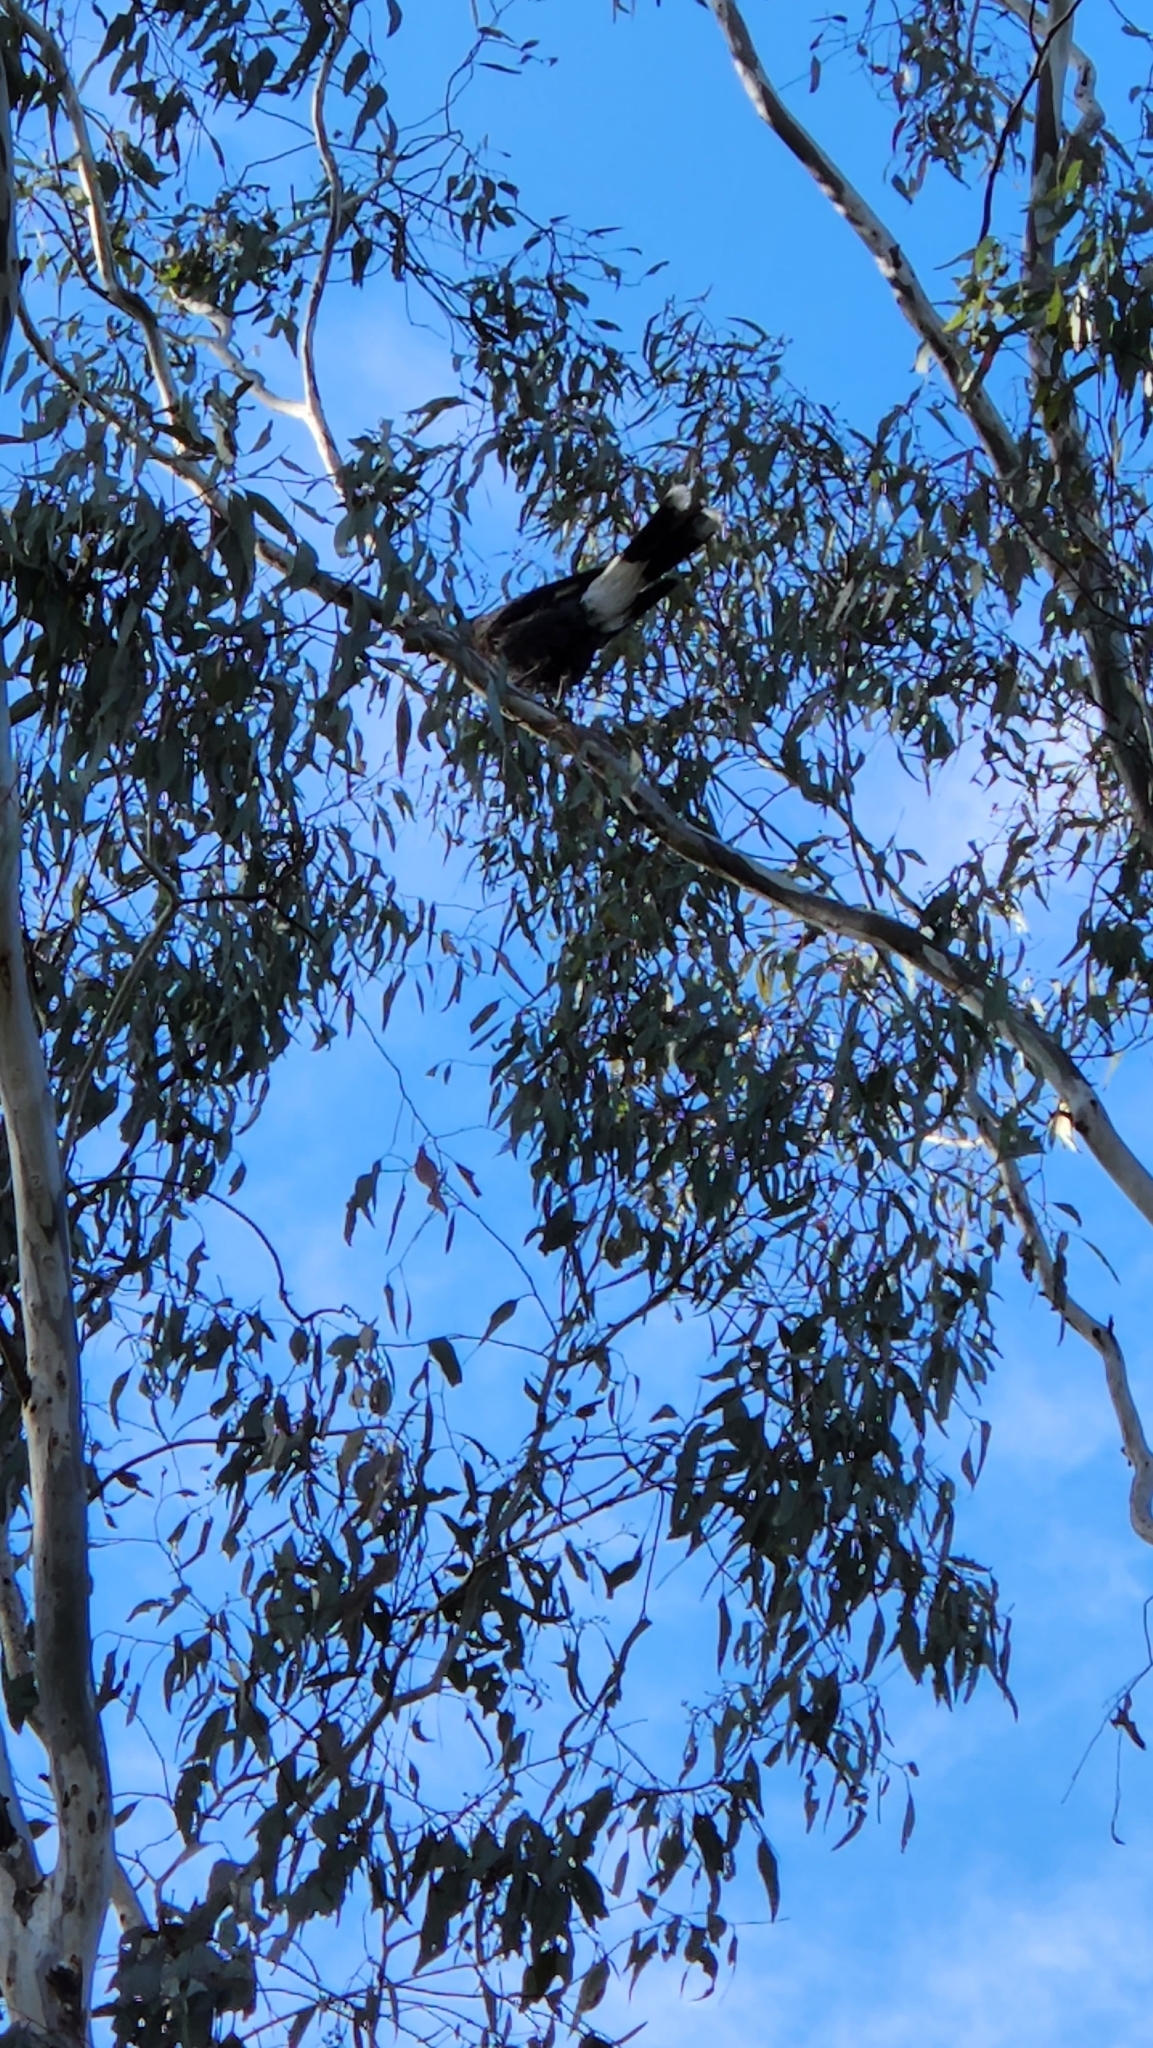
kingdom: Animalia
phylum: Chordata
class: Aves
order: Passeriformes
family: Cracticidae
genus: Strepera
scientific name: Strepera graculina
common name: Pied currawong
